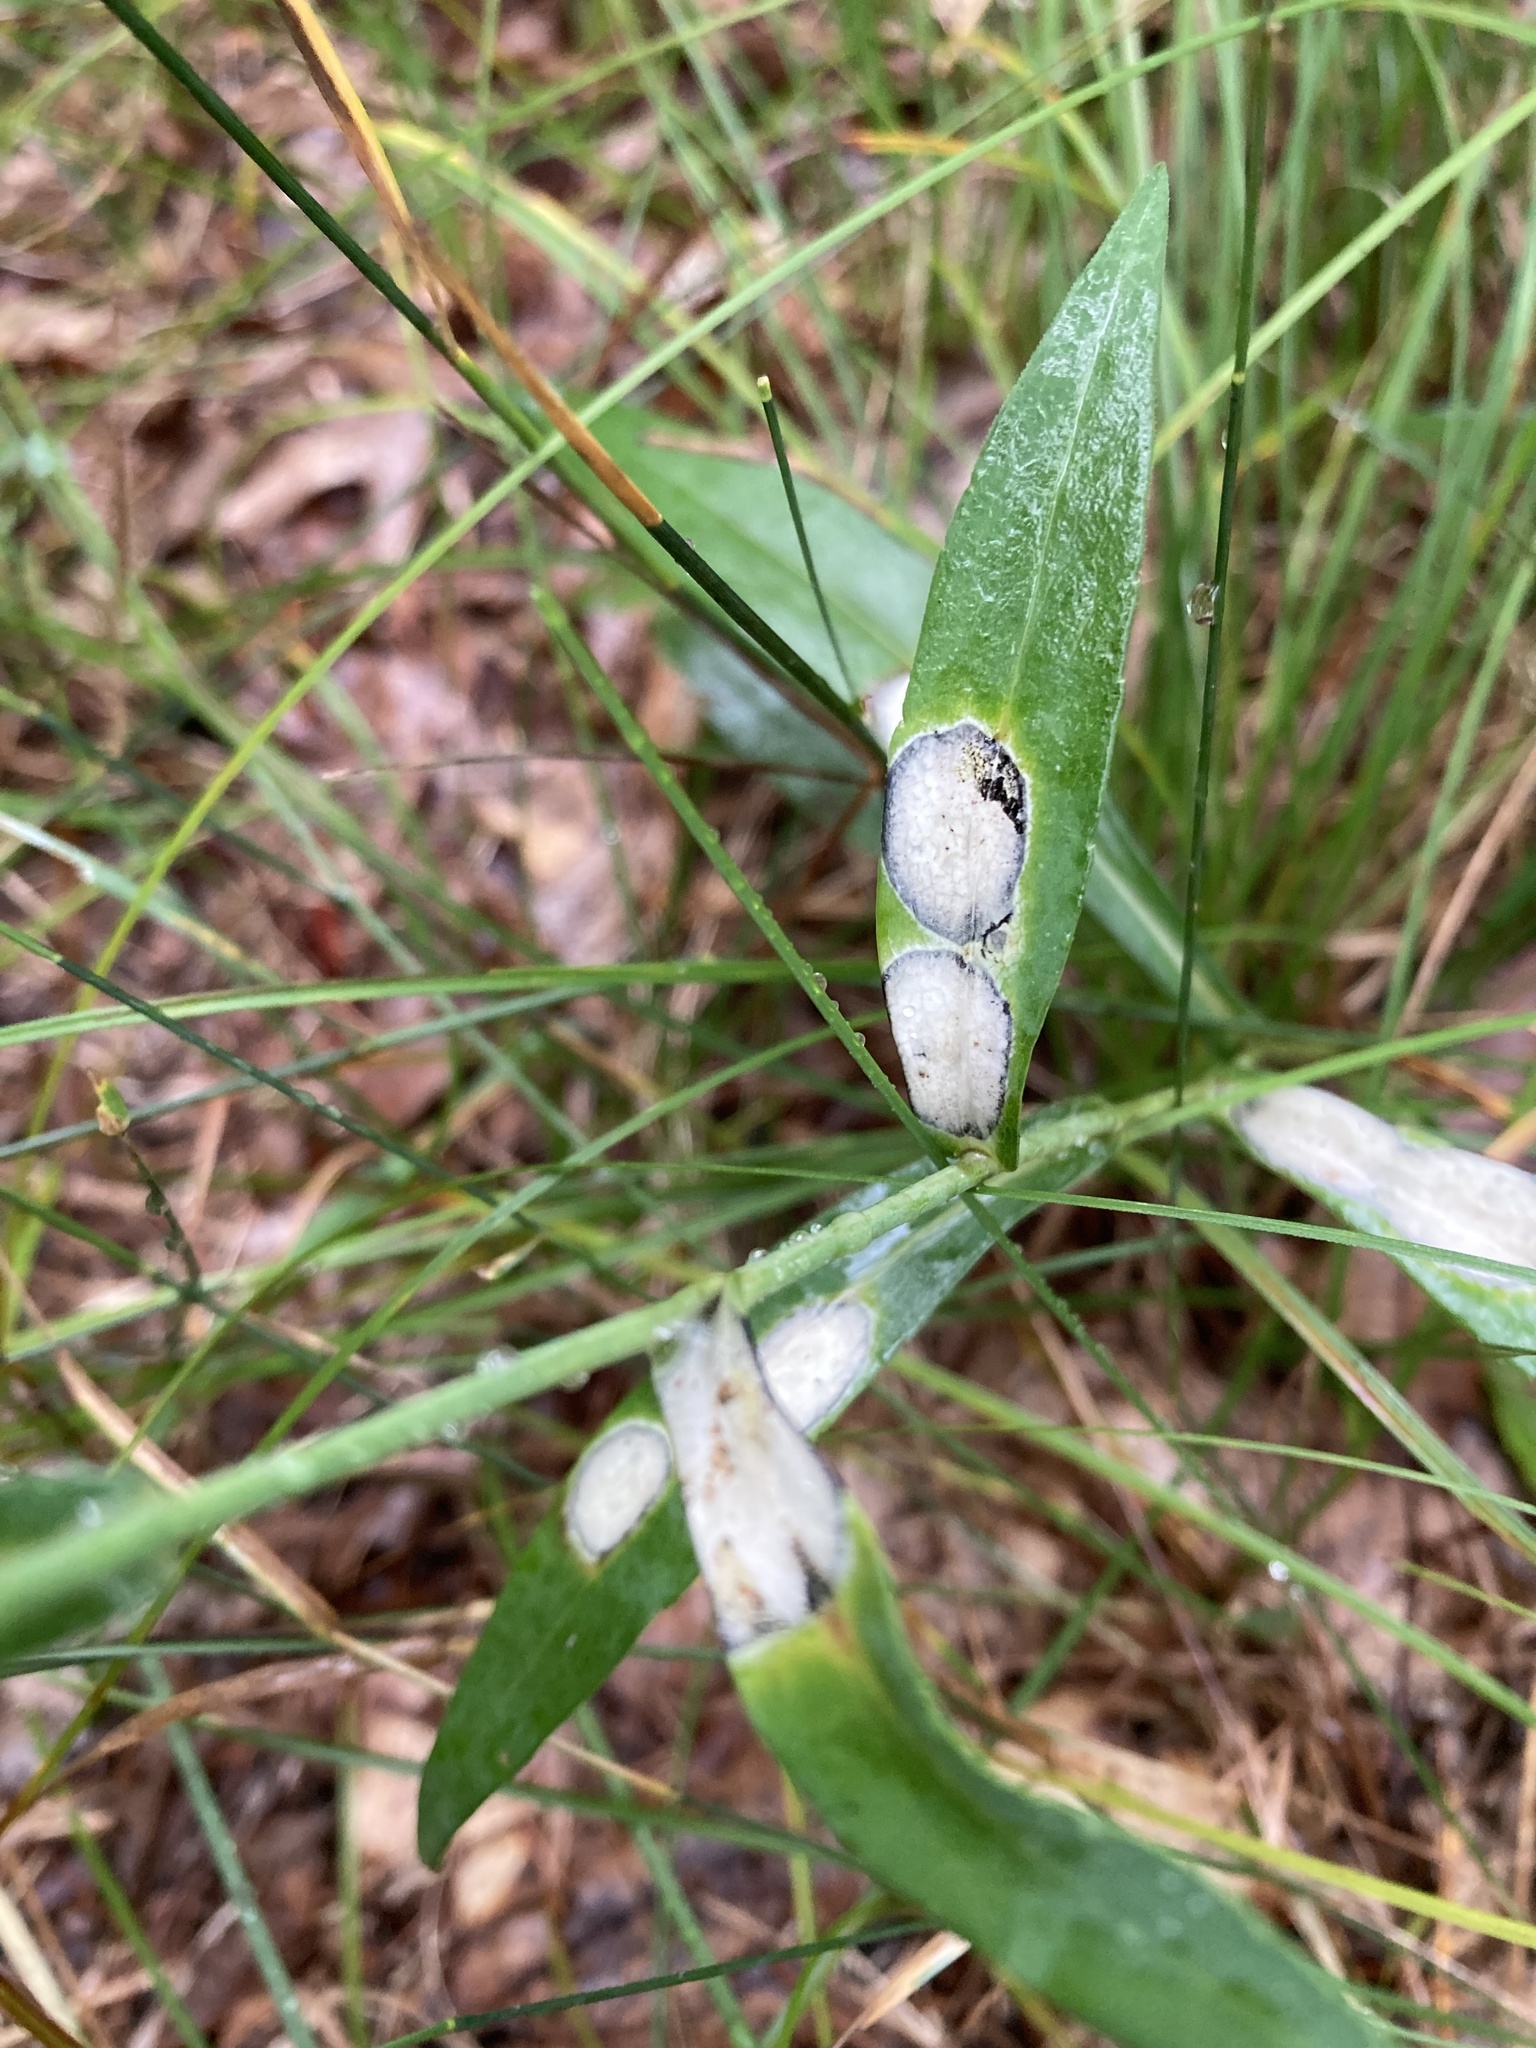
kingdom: Animalia
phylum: Arthropoda
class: Insecta
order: Diptera
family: Cecidomyiidae
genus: Asteromyia
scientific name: Asteromyia carbonifera
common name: Carbonifera goldenrod gall midge
